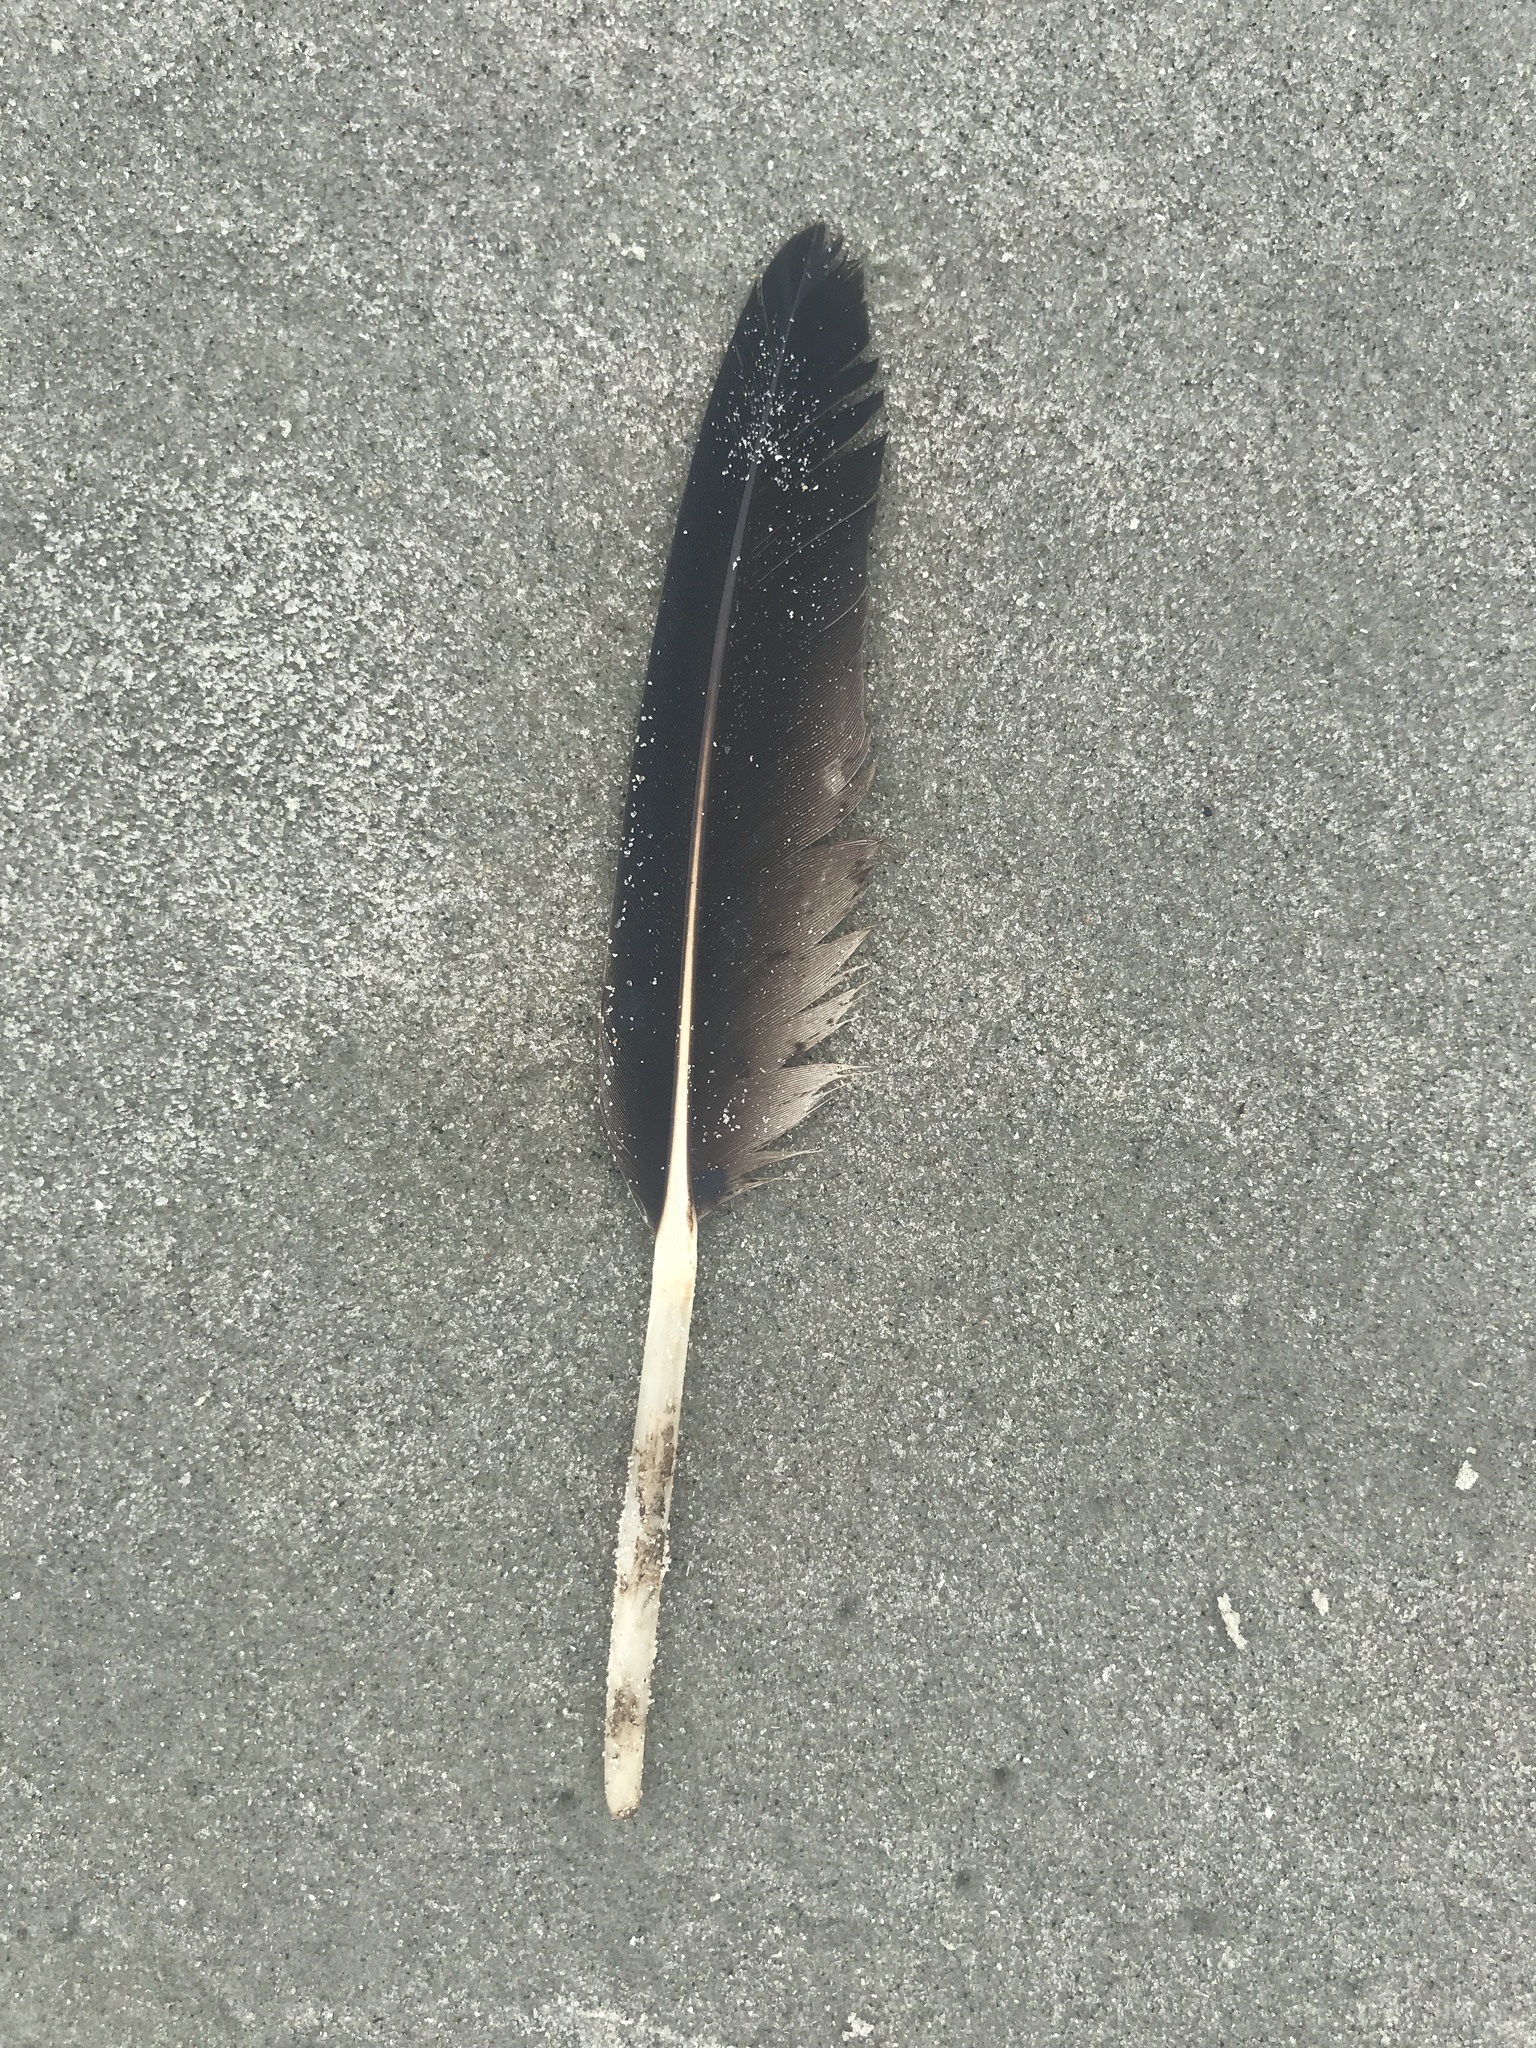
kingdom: Animalia
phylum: Chordata
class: Aves
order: Pelecaniformes
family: Pelecanidae
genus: Pelecanus
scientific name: Pelecanus occidentalis
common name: Brown pelican
